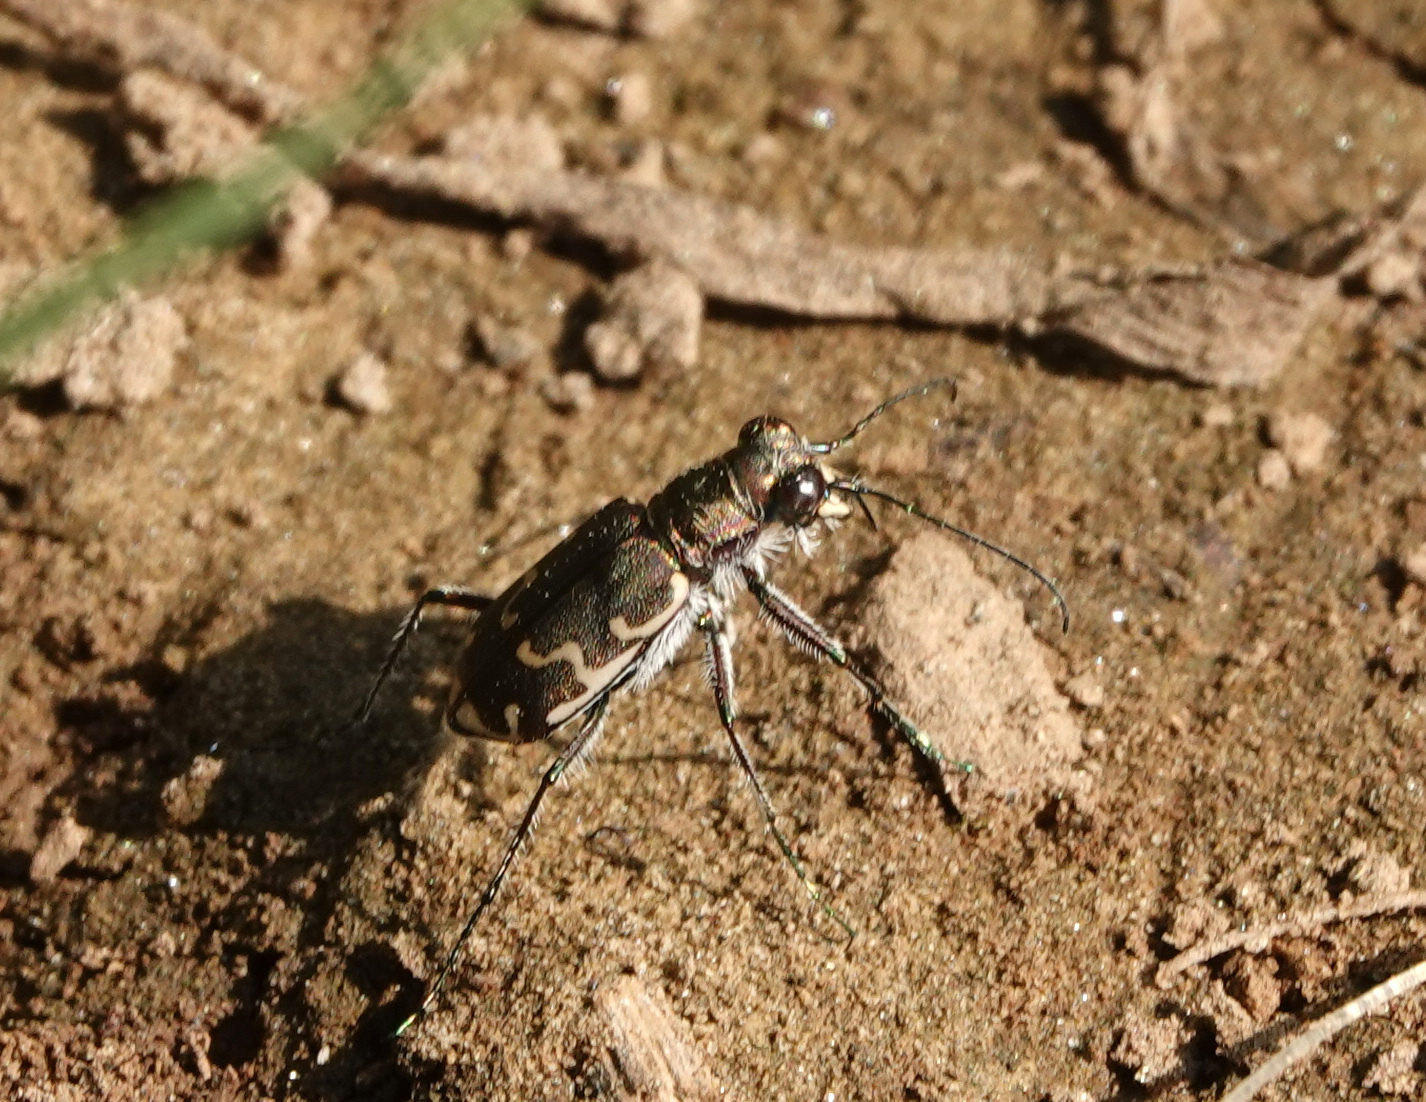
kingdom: Animalia
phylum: Arthropoda
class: Insecta
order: Coleoptera
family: Carabidae
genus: Cicindela
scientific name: Cicindela repanda
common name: Bronzed tiger beetle
